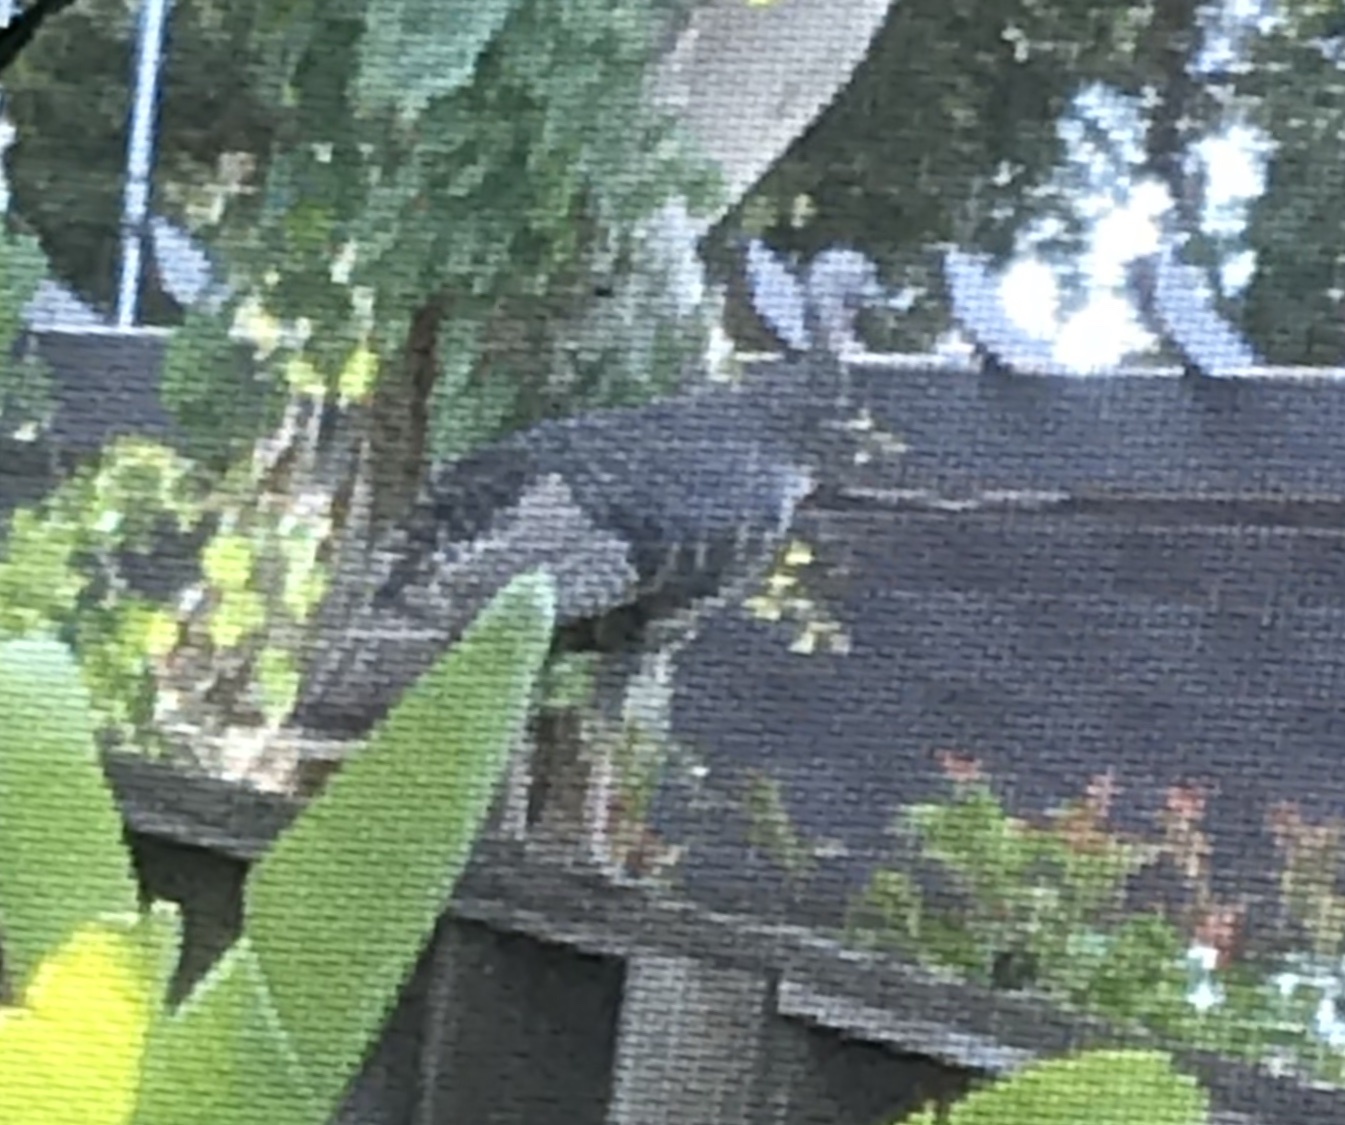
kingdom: Animalia
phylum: Chordata
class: Aves
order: Galliformes
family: Phasianidae
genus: Meleagris
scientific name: Meleagris gallopavo
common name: Wild turkey
